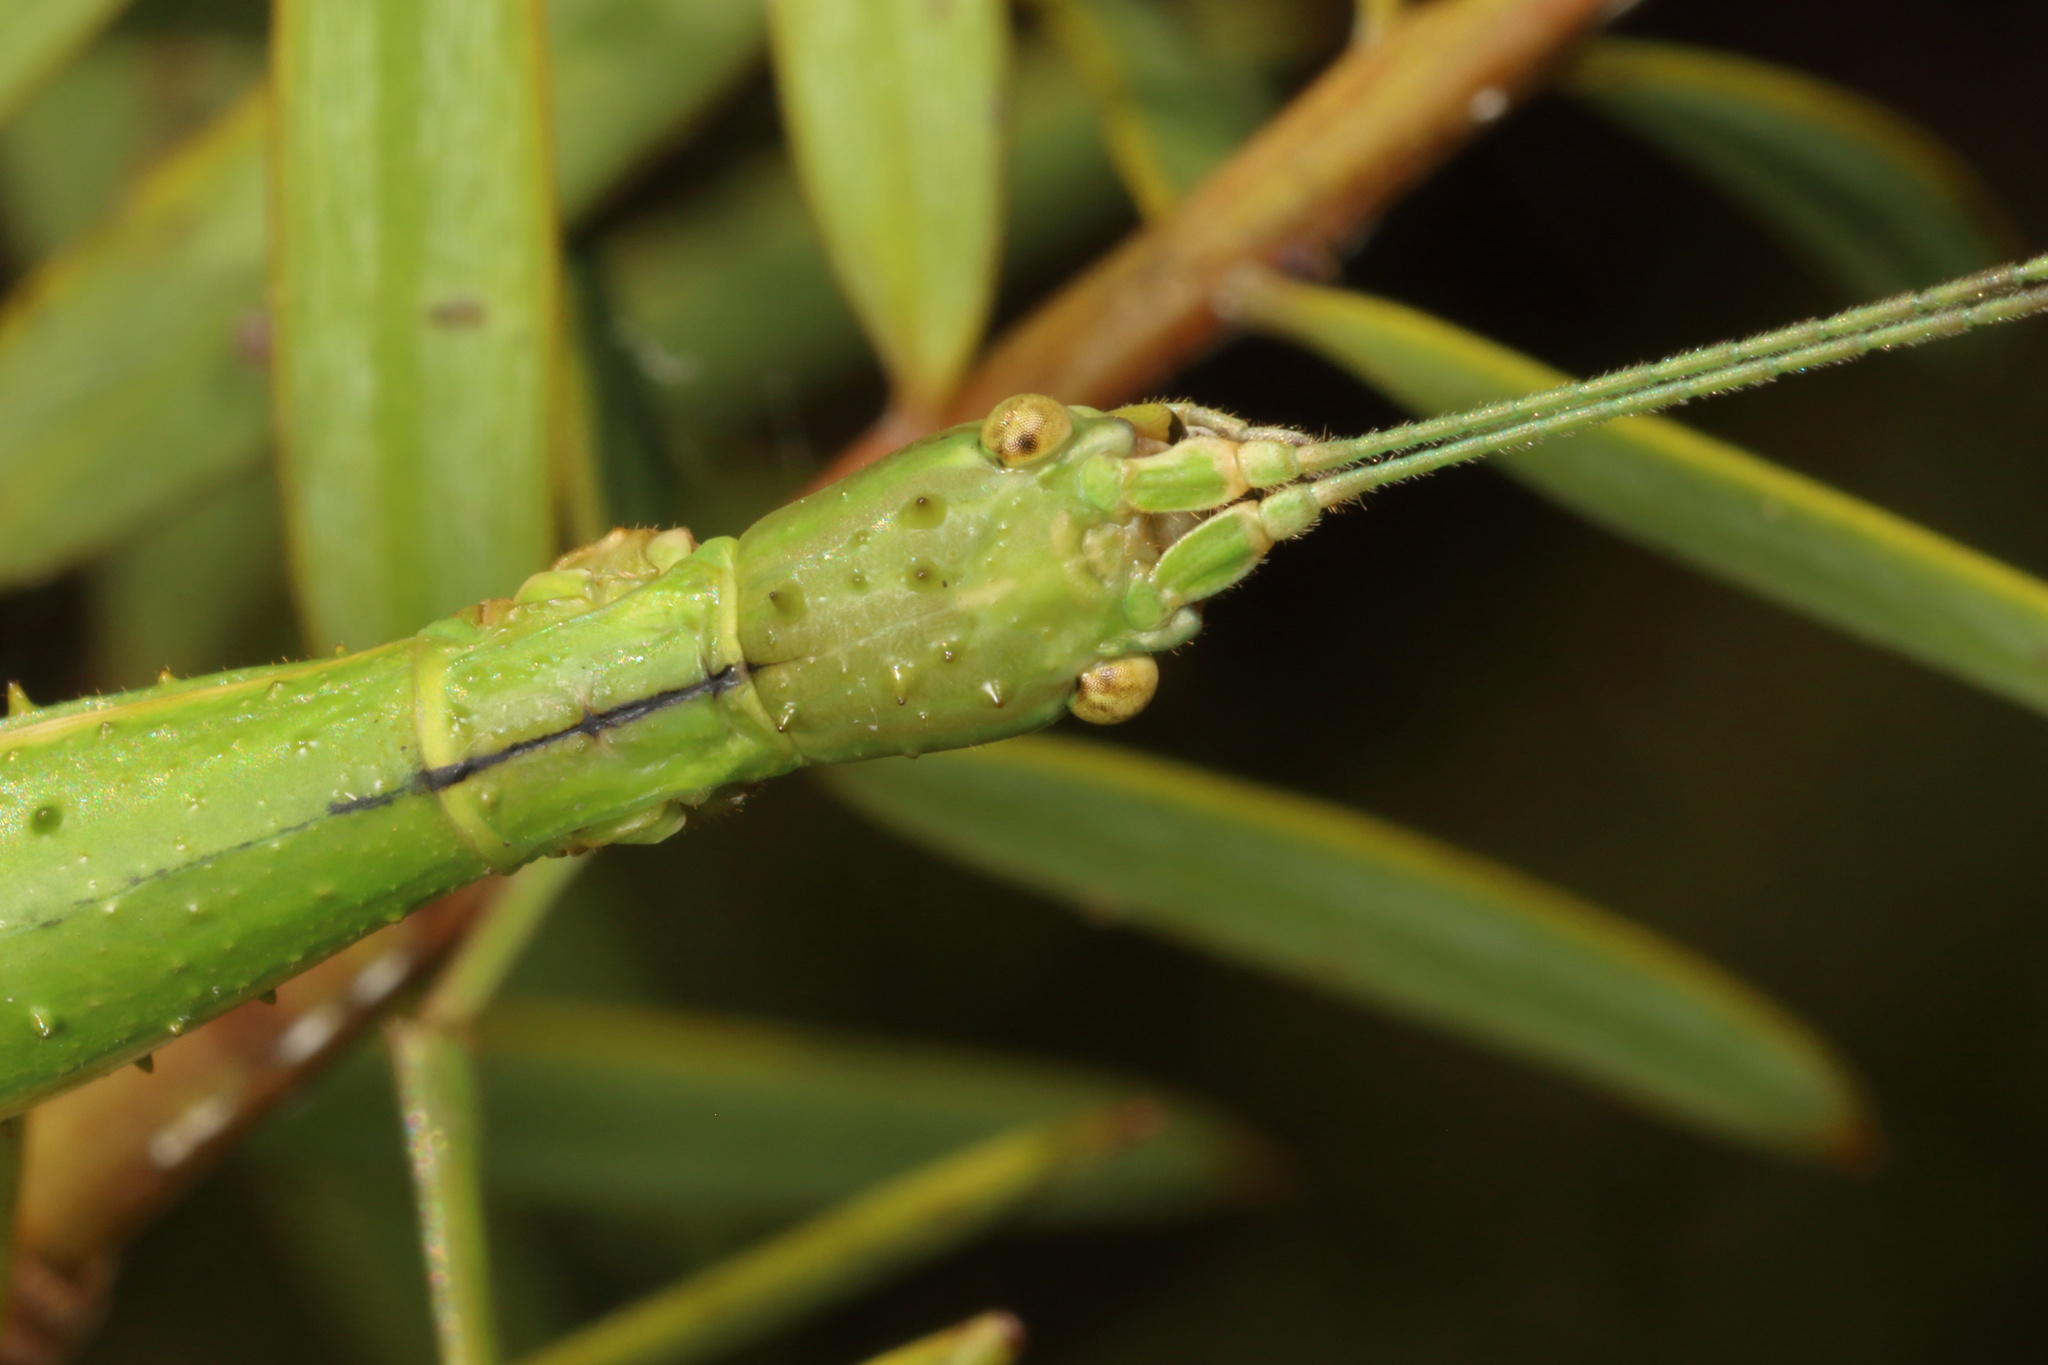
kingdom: Animalia
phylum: Arthropoda
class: Insecta
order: Phasmida
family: Phasmatidae
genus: Acanthoxyla
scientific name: Acanthoxyla prasina
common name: Black-spined stick insect
